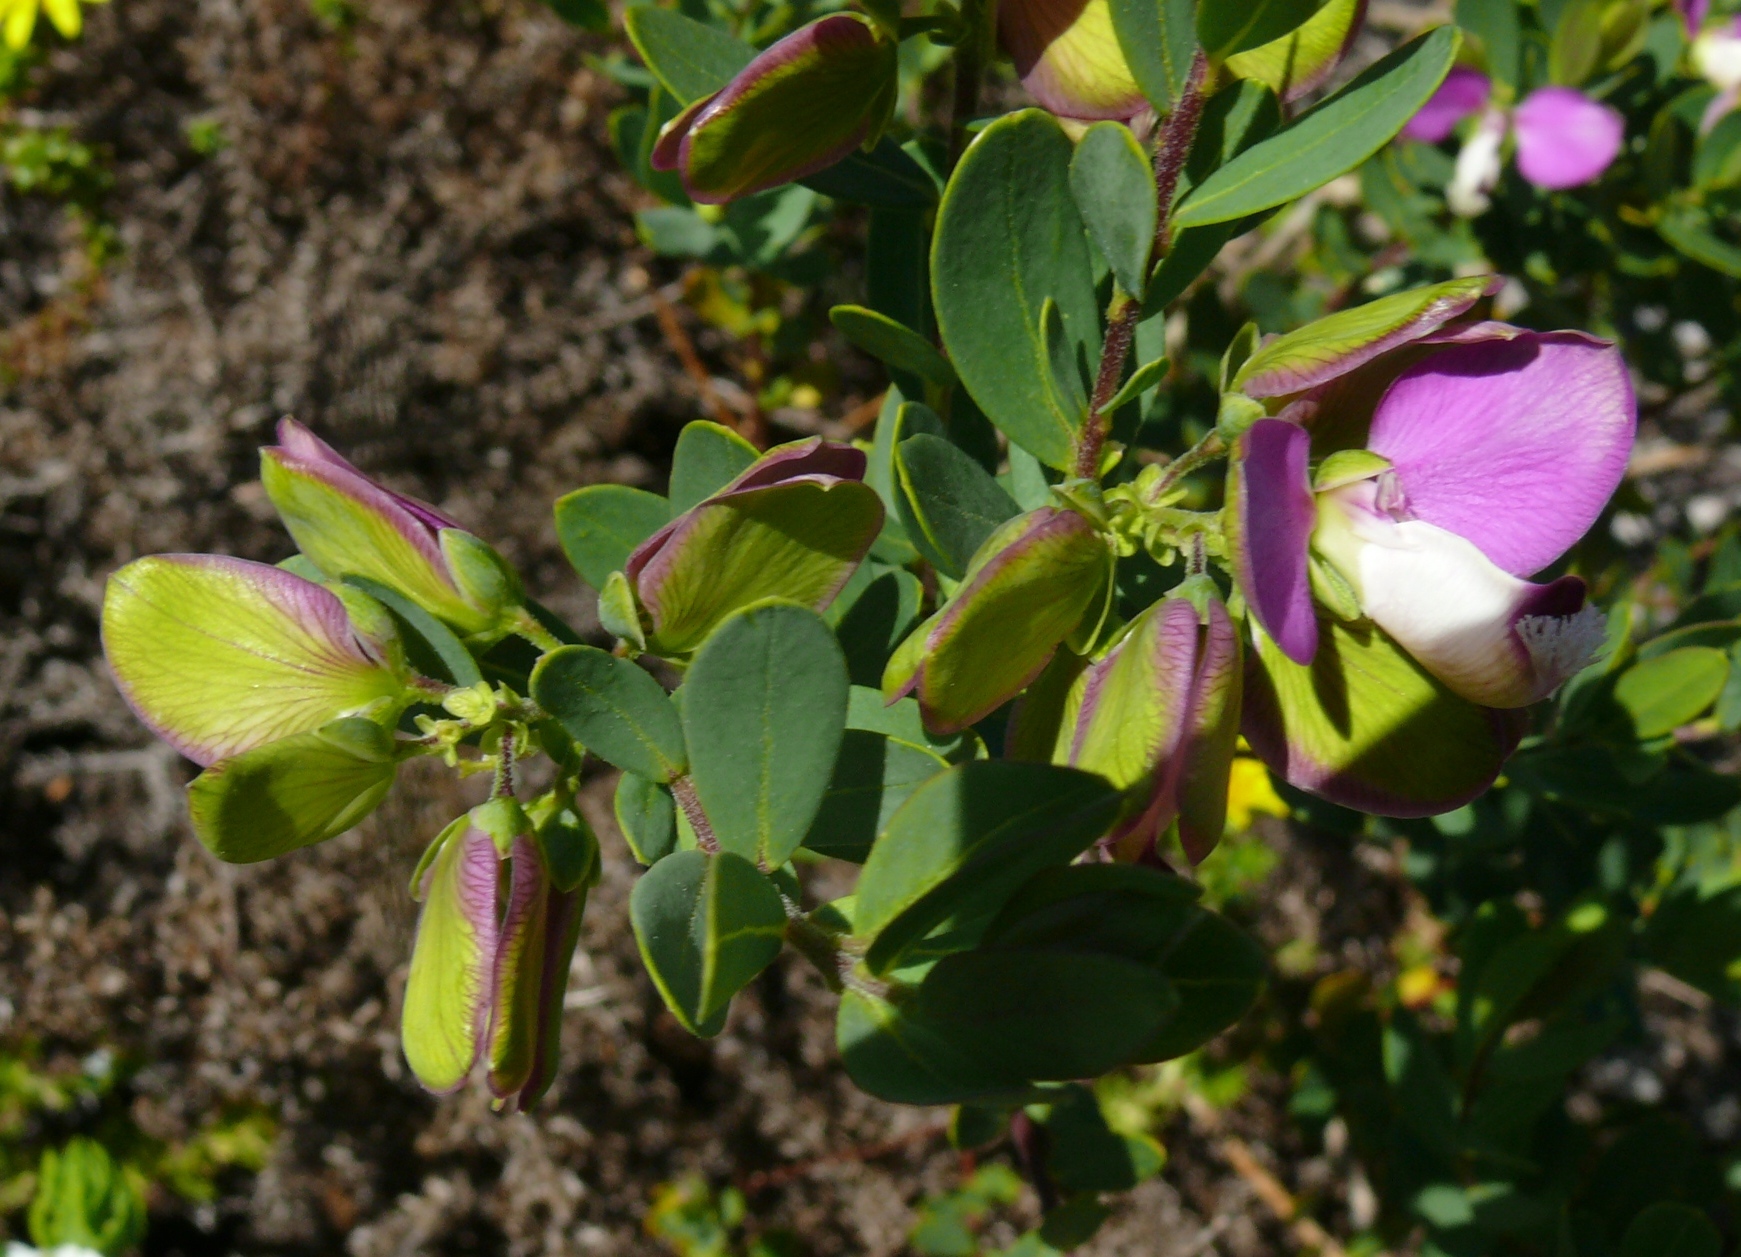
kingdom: Plantae
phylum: Tracheophyta
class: Magnoliopsida
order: Fabales
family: Polygalaceae
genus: Polygala
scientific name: Polygala myrtifolia
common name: Myrtle-leaf milkwort
